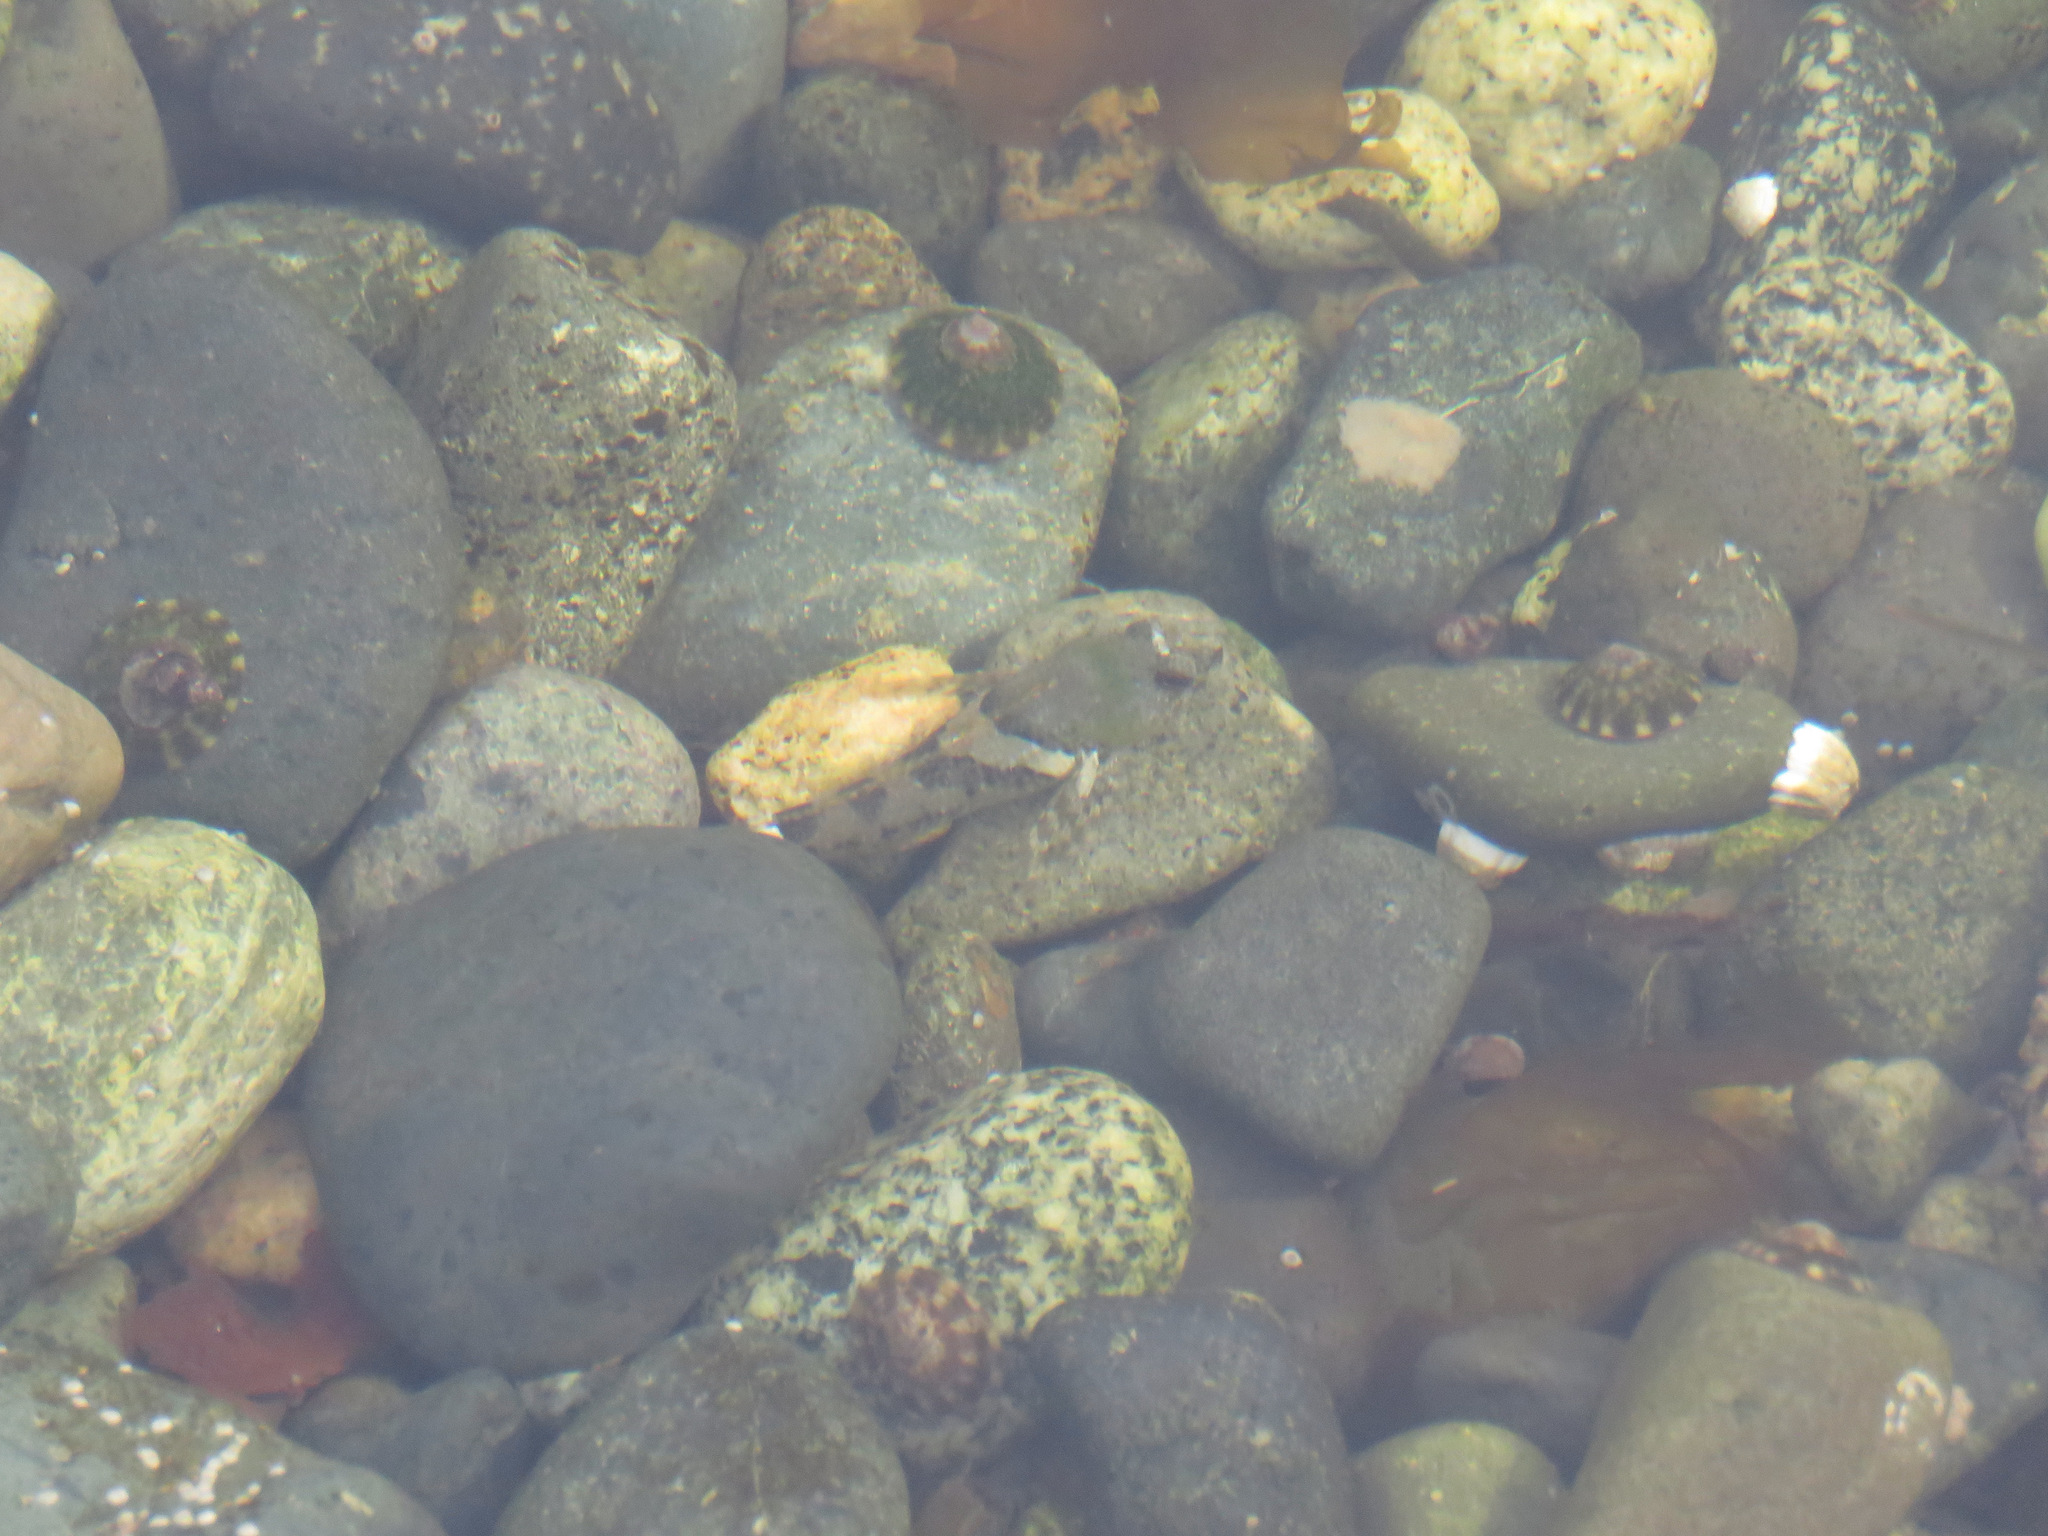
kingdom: Animalia
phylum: Chordata
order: Scorpaeniformes
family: Cottidae
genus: Oligocottus
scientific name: Oligocottus maculosus
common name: Tidepool sculpin
